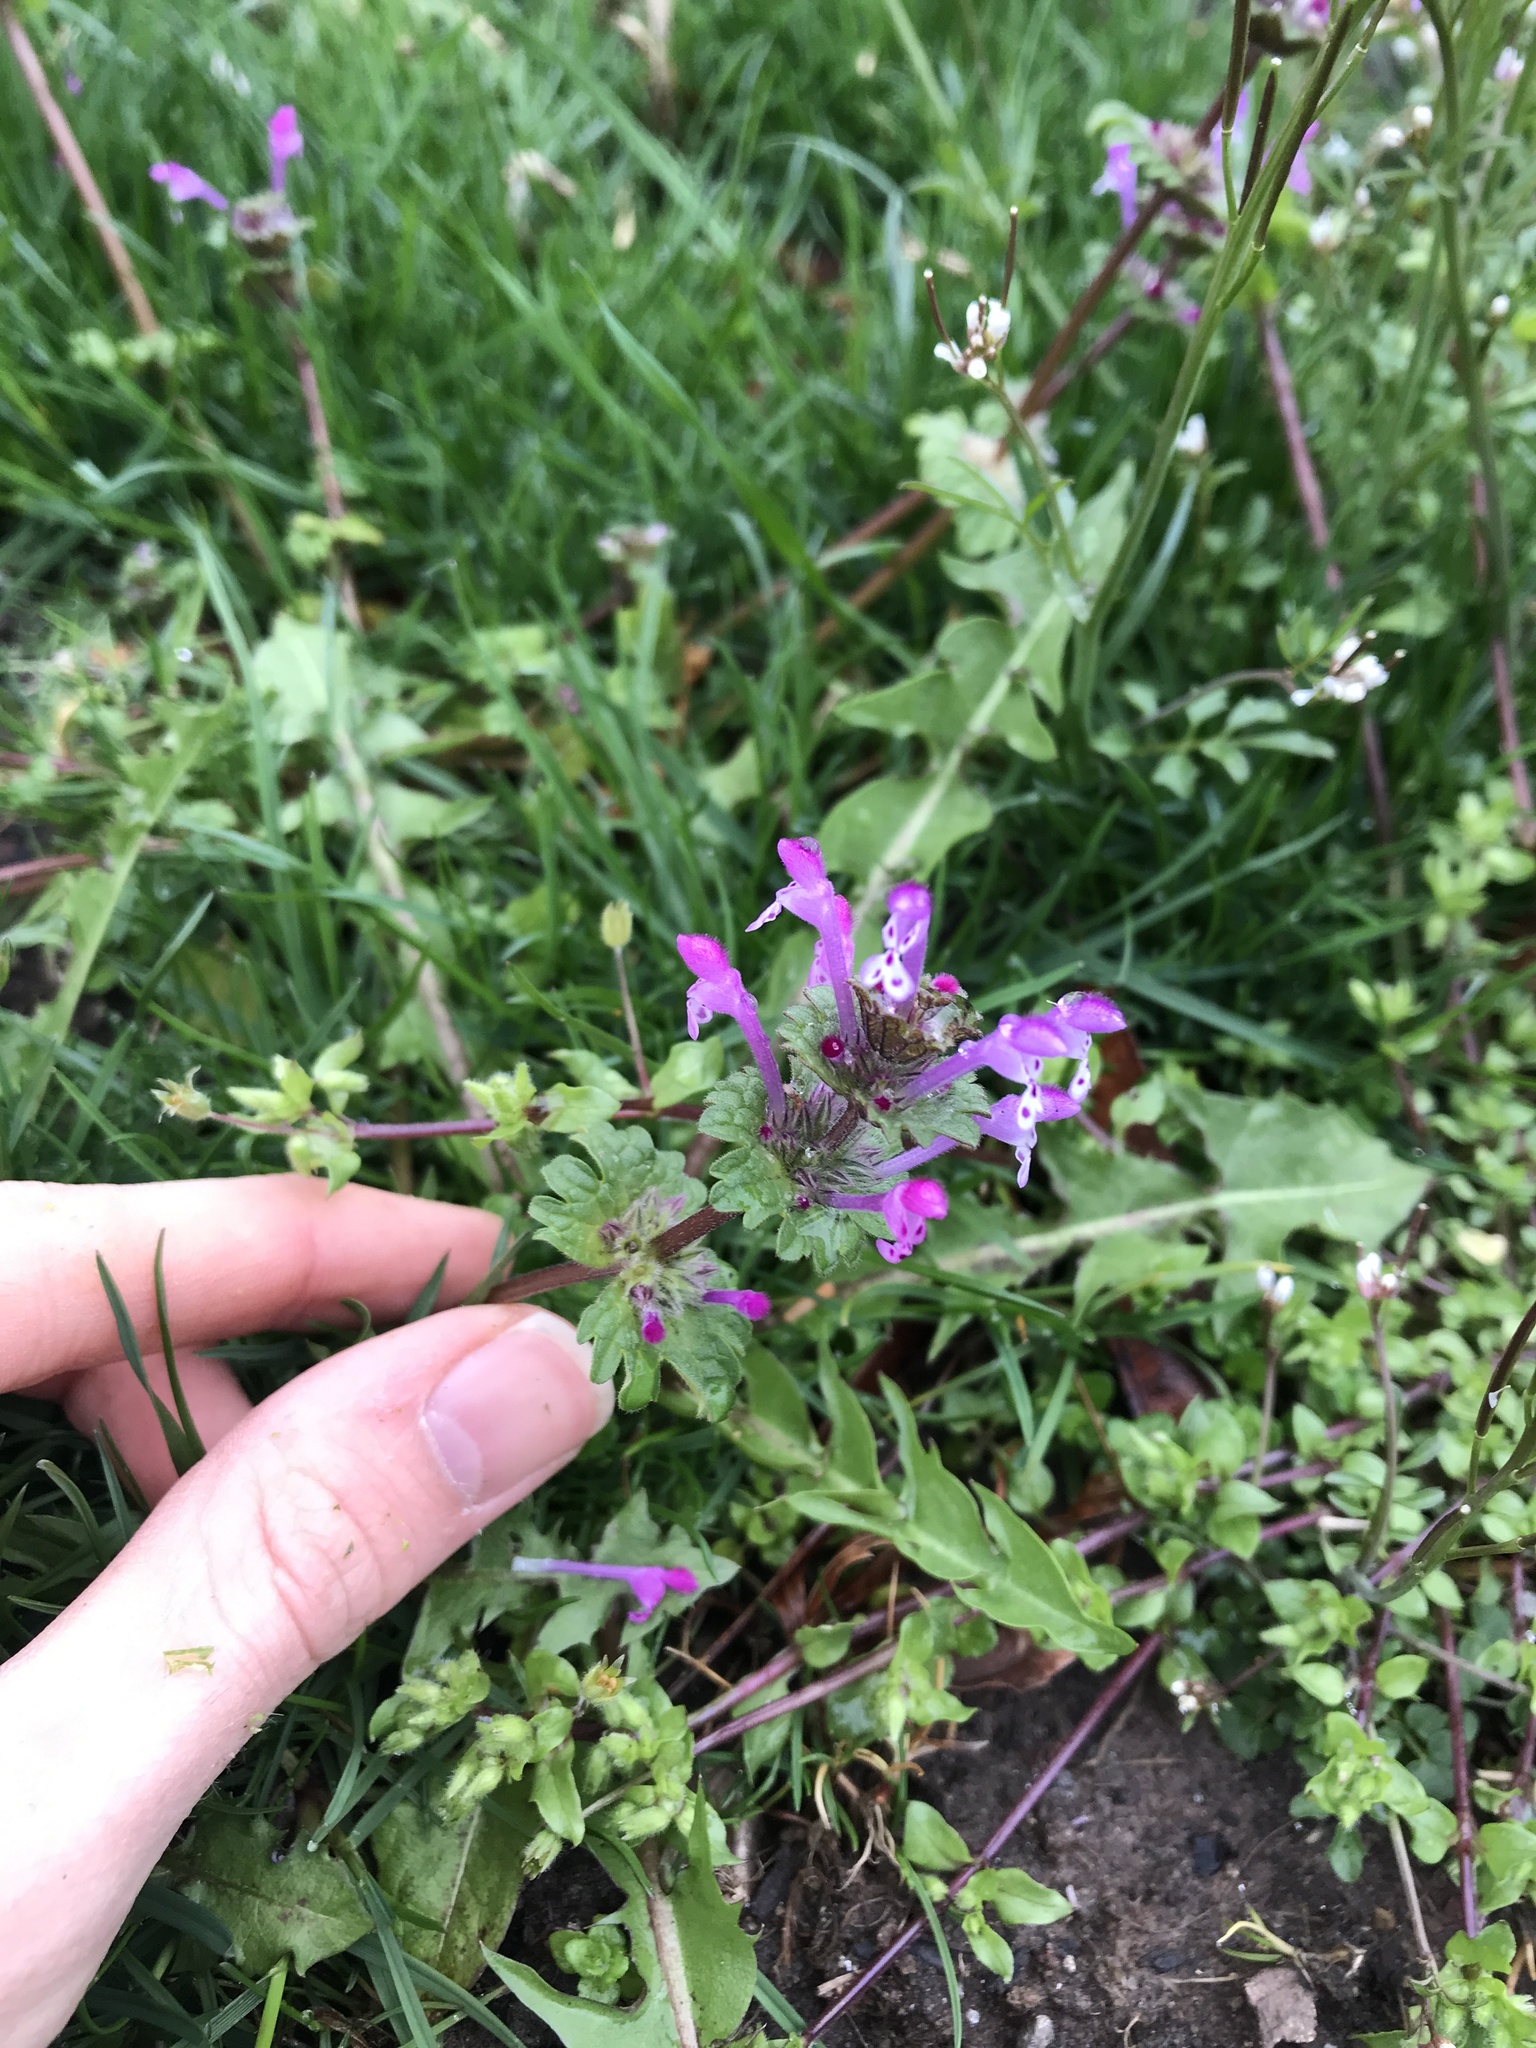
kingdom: Plantae
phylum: Tracheophyta
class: Magnoliopsida
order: Lamiales
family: Lamiaceae
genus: Lamium
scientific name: Lamium amplexicaule
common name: Henbit dead-nettle
